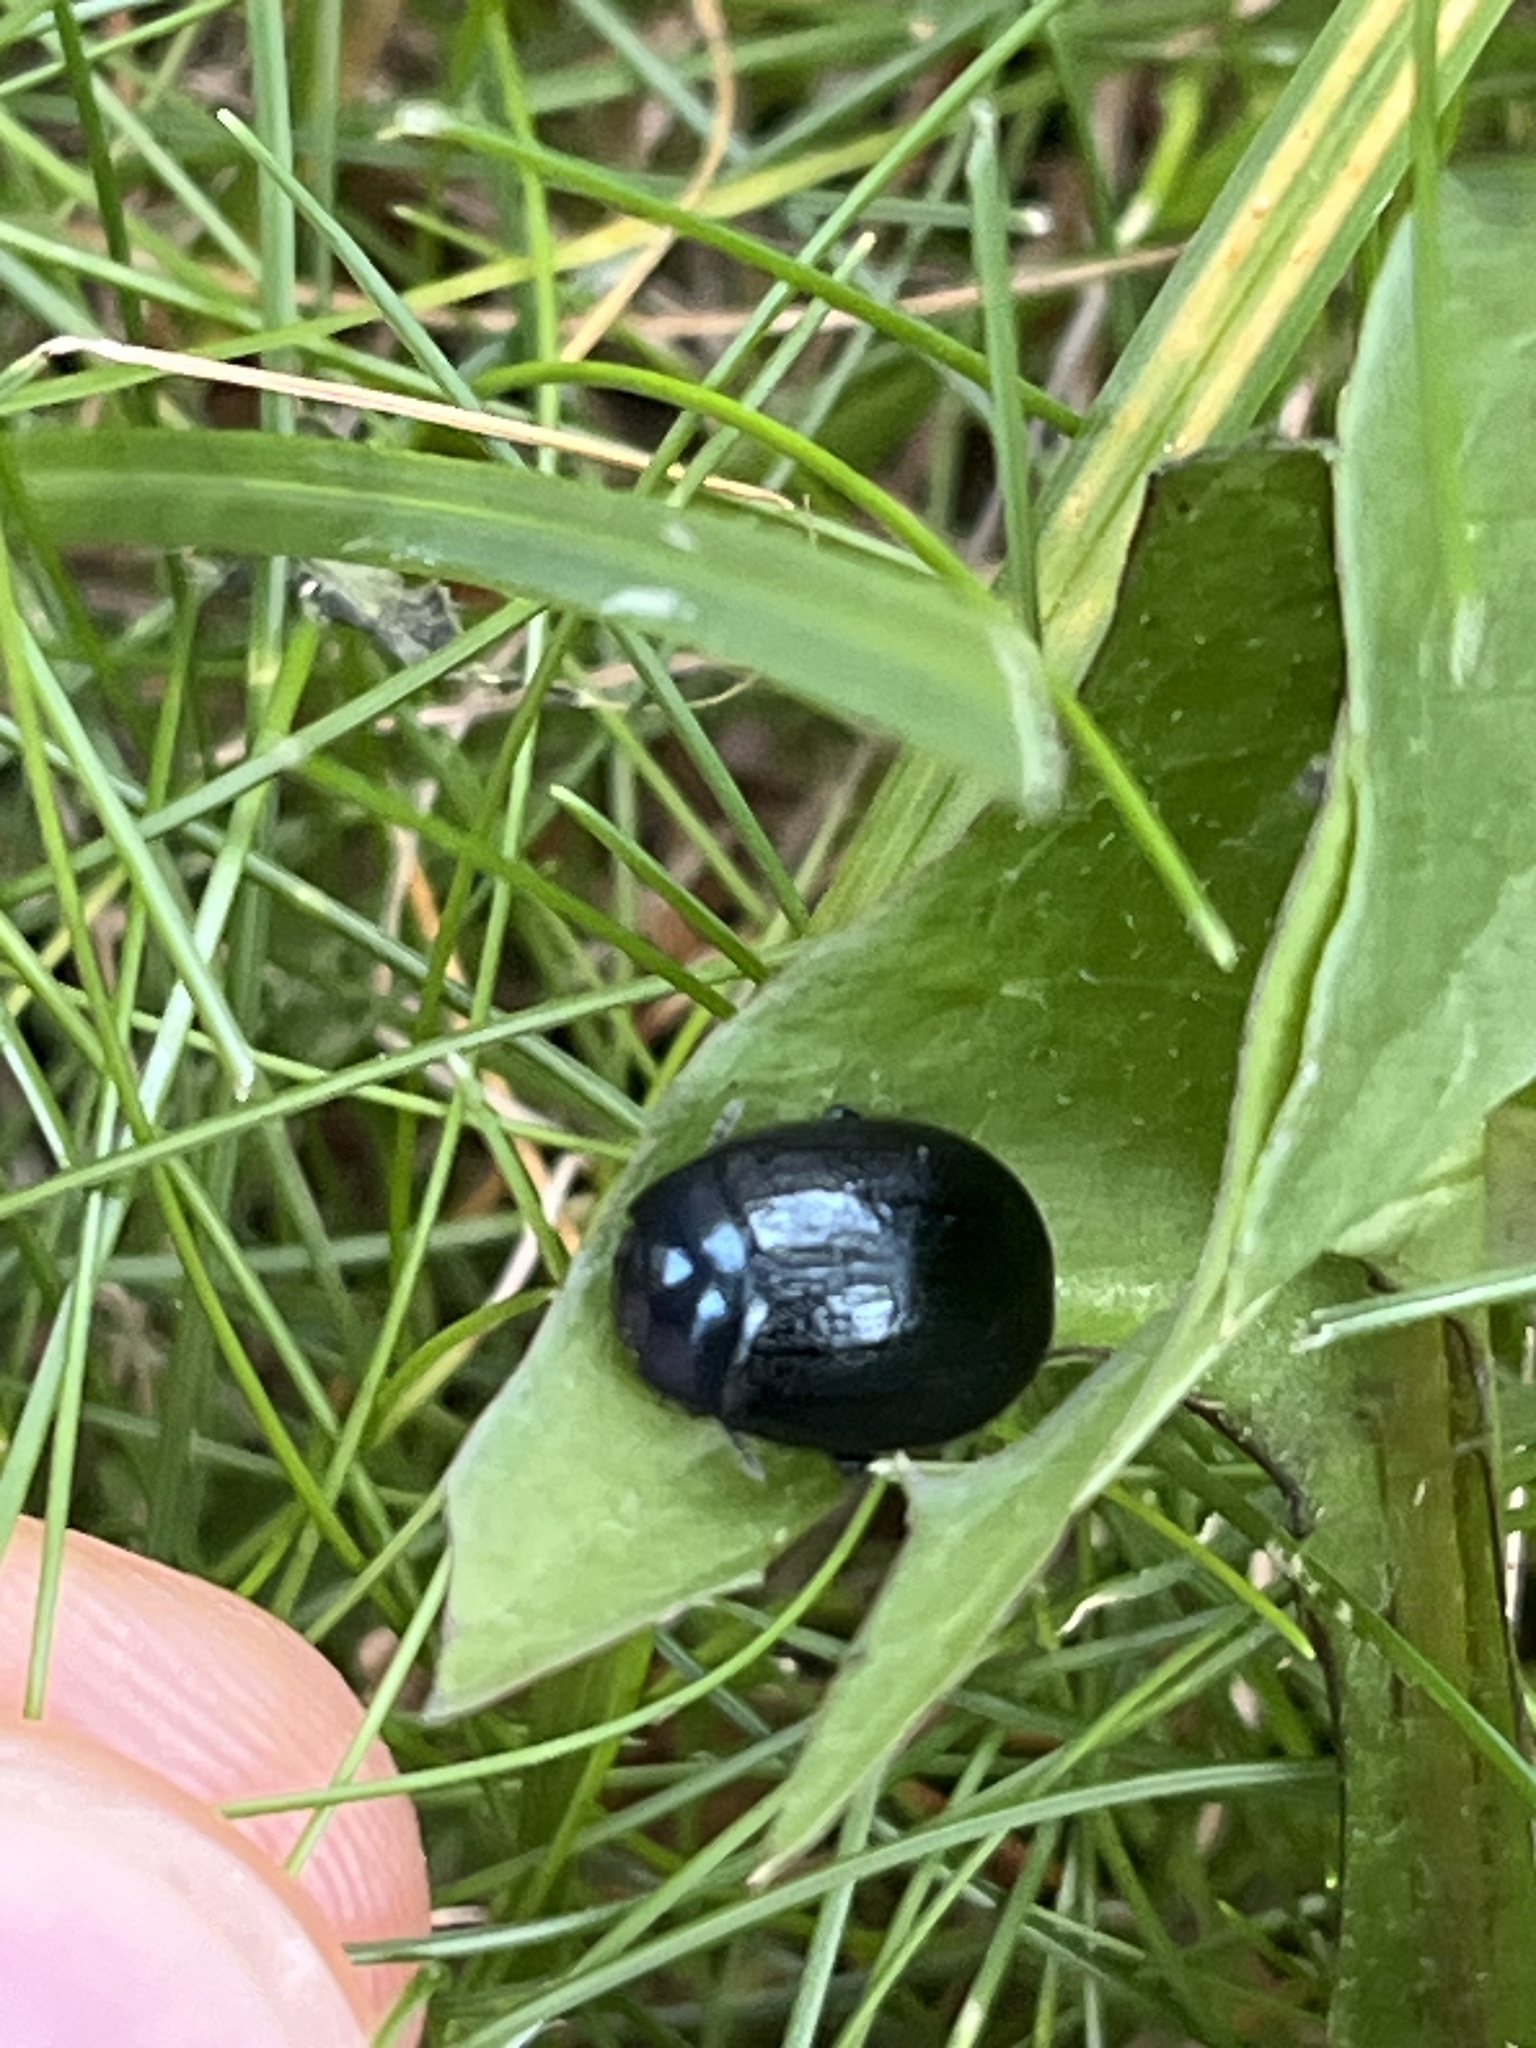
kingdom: Animalia
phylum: Arthropoda
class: Insecta
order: Coleoptera
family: Chrysomelidae
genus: Chrysolina
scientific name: Chrysolina haemoptera
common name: Plantain leaf beetle
